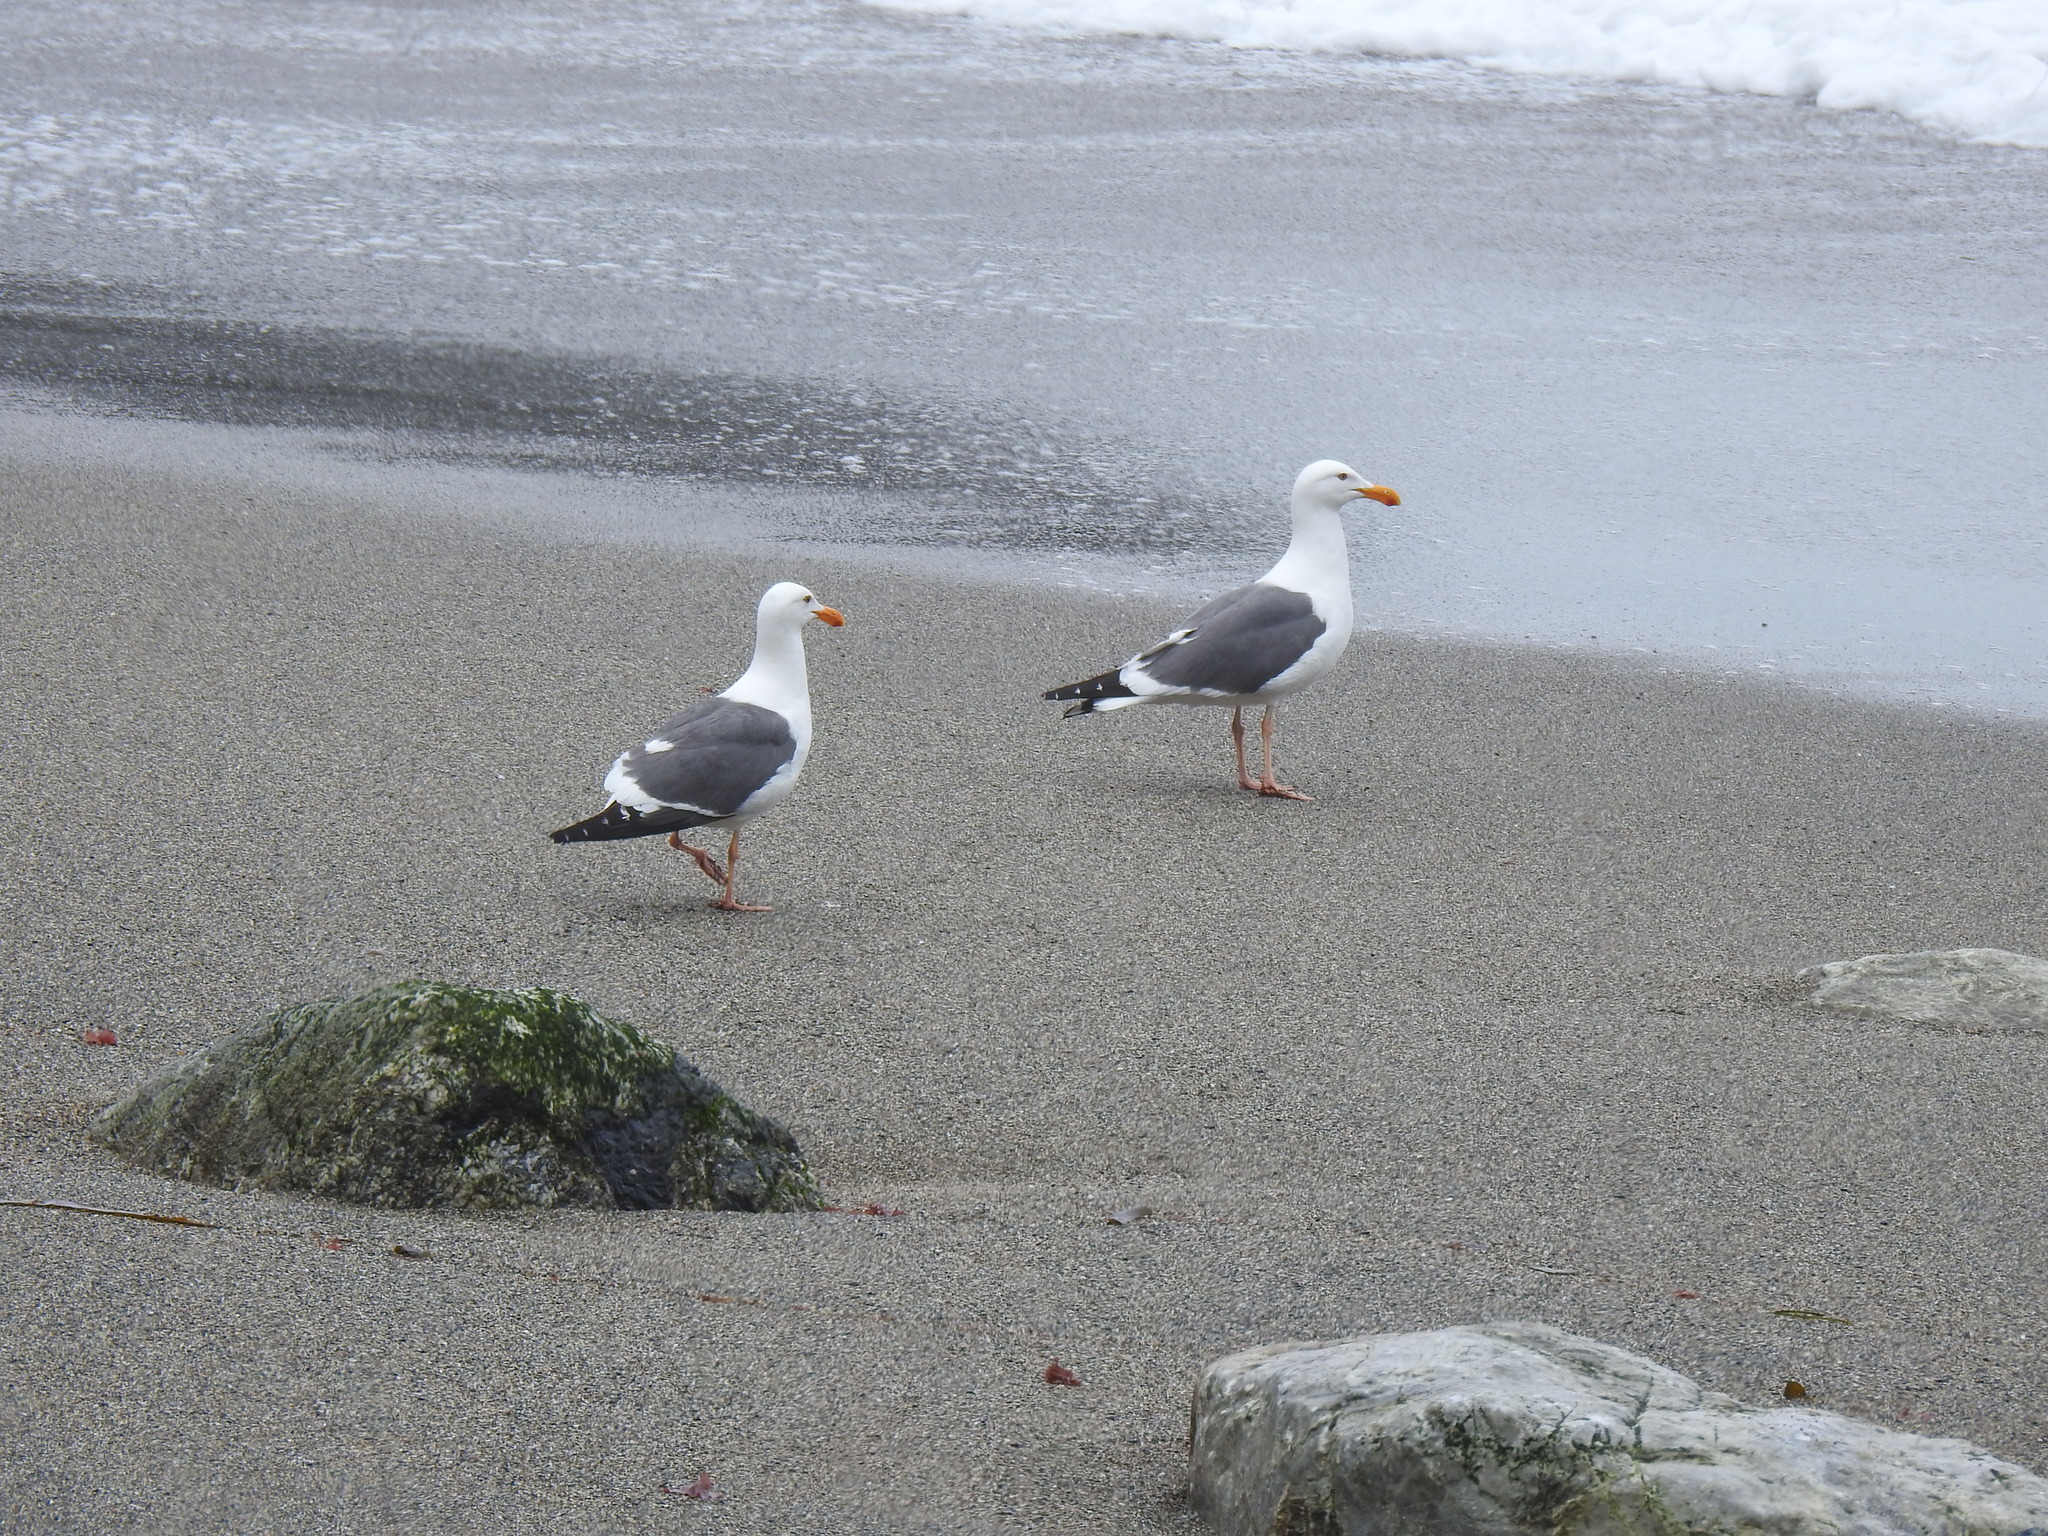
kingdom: Animalia
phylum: Chordata
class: Aves
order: Charadriiformes
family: Laridae
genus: Larus
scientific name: Larus occidentalis
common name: Western gull
